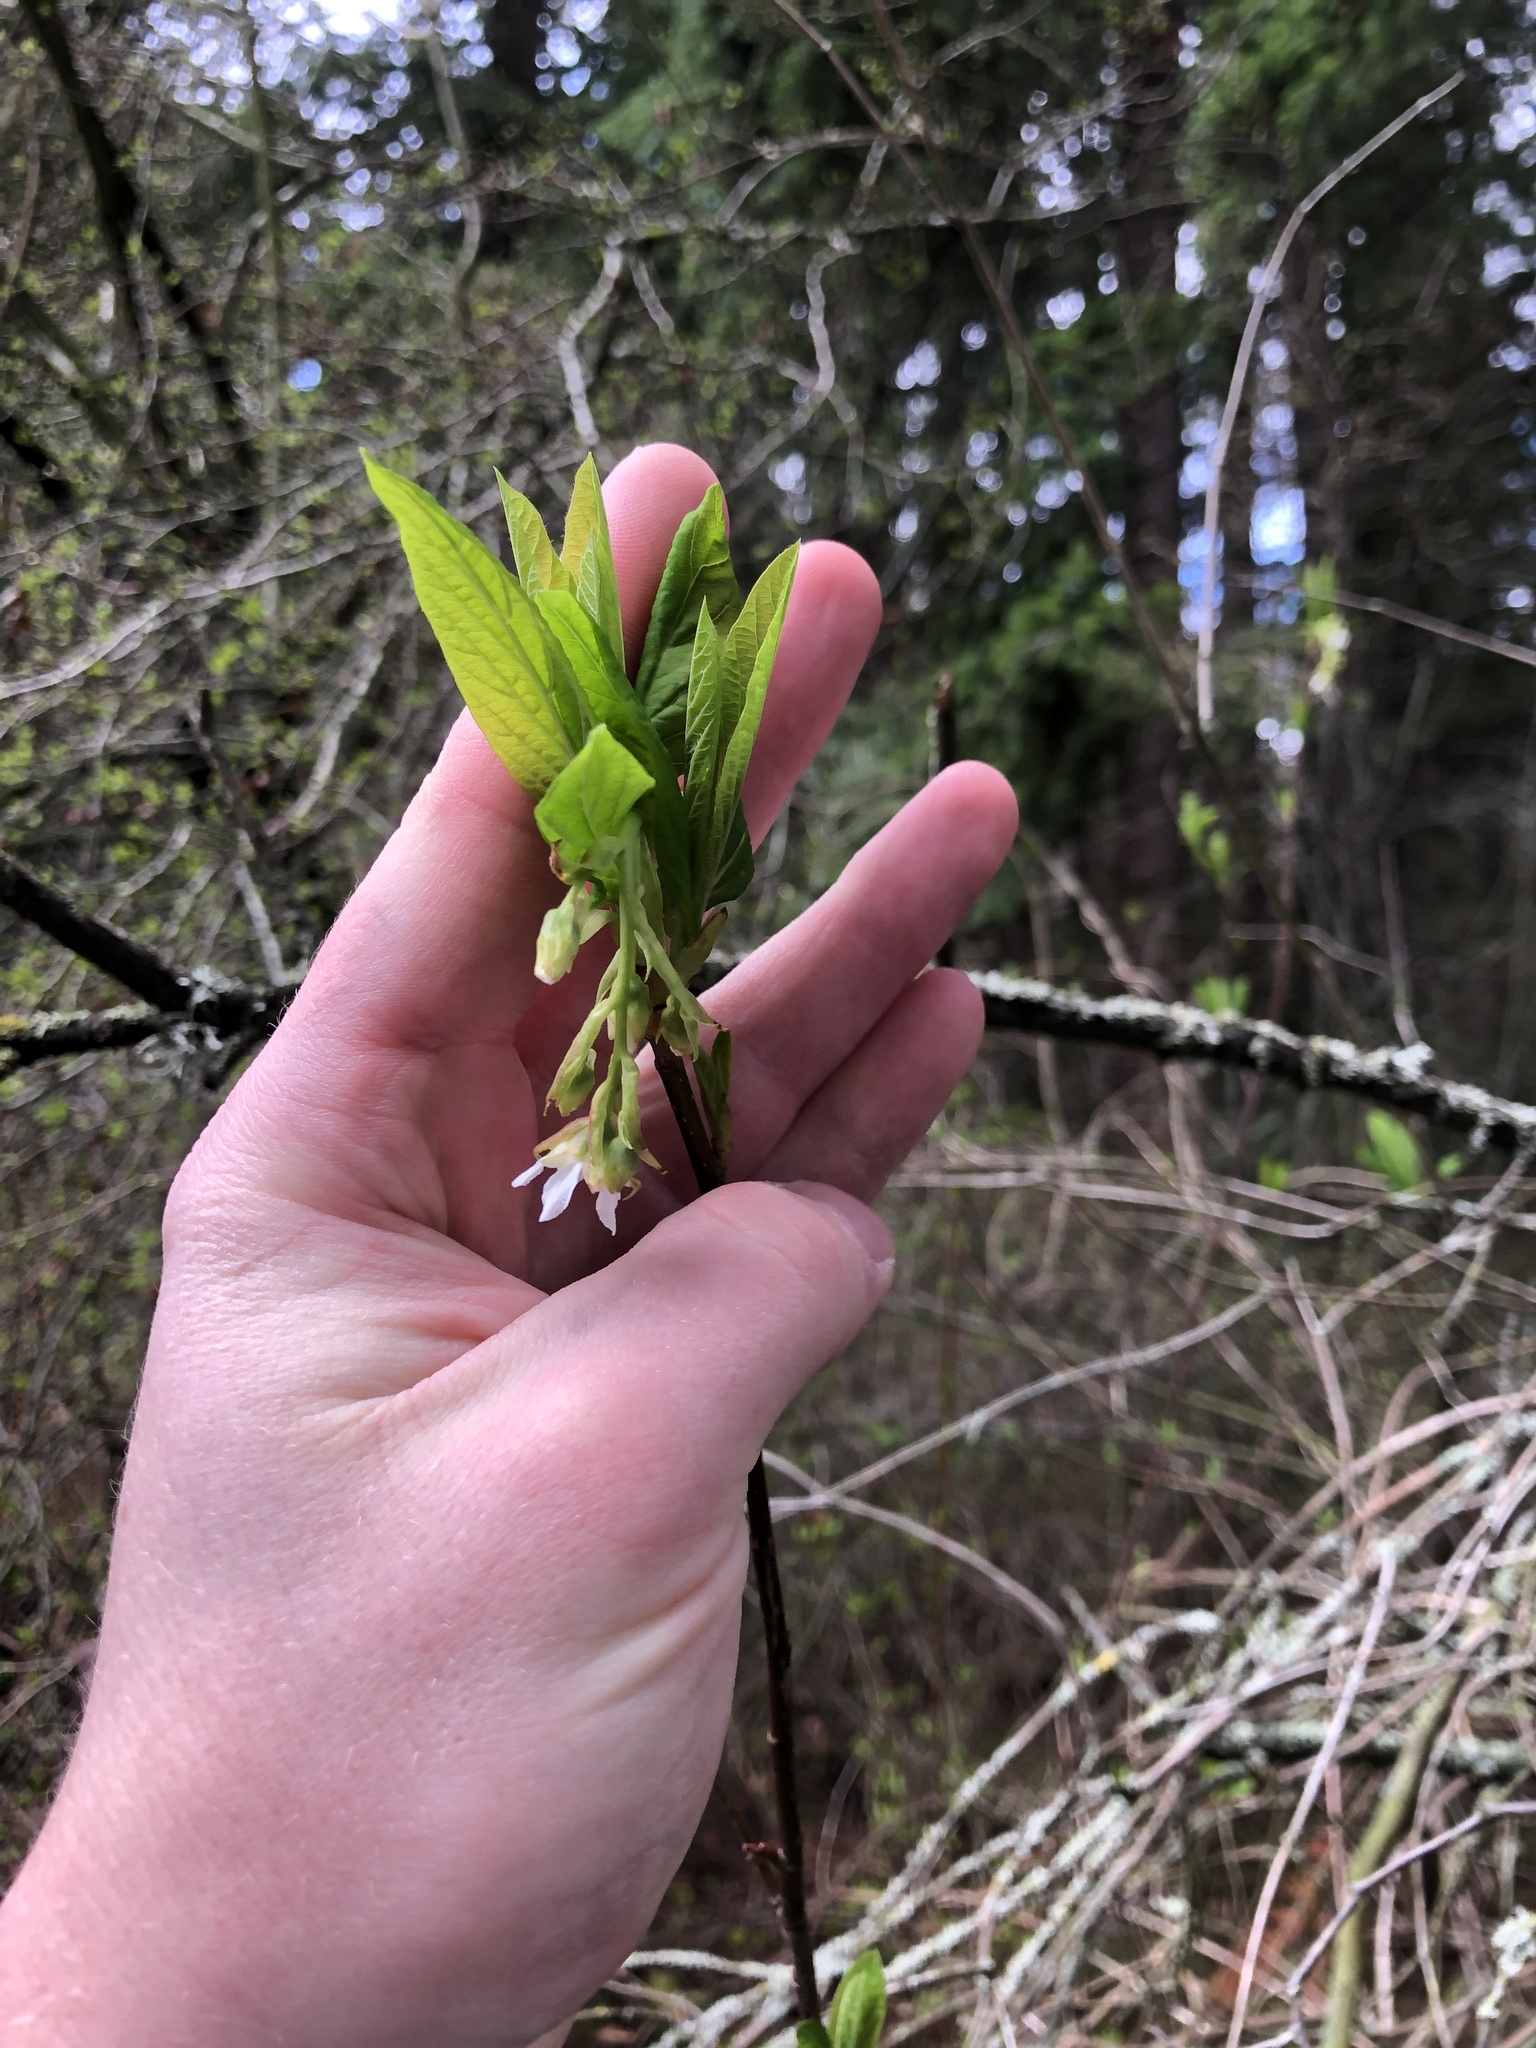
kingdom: Plantae
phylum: Tracheophyta
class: Magnoliopsida
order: Rosales
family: Rosaceae
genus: Oemleria
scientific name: Oemleria cerasiformis
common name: Osoberry
